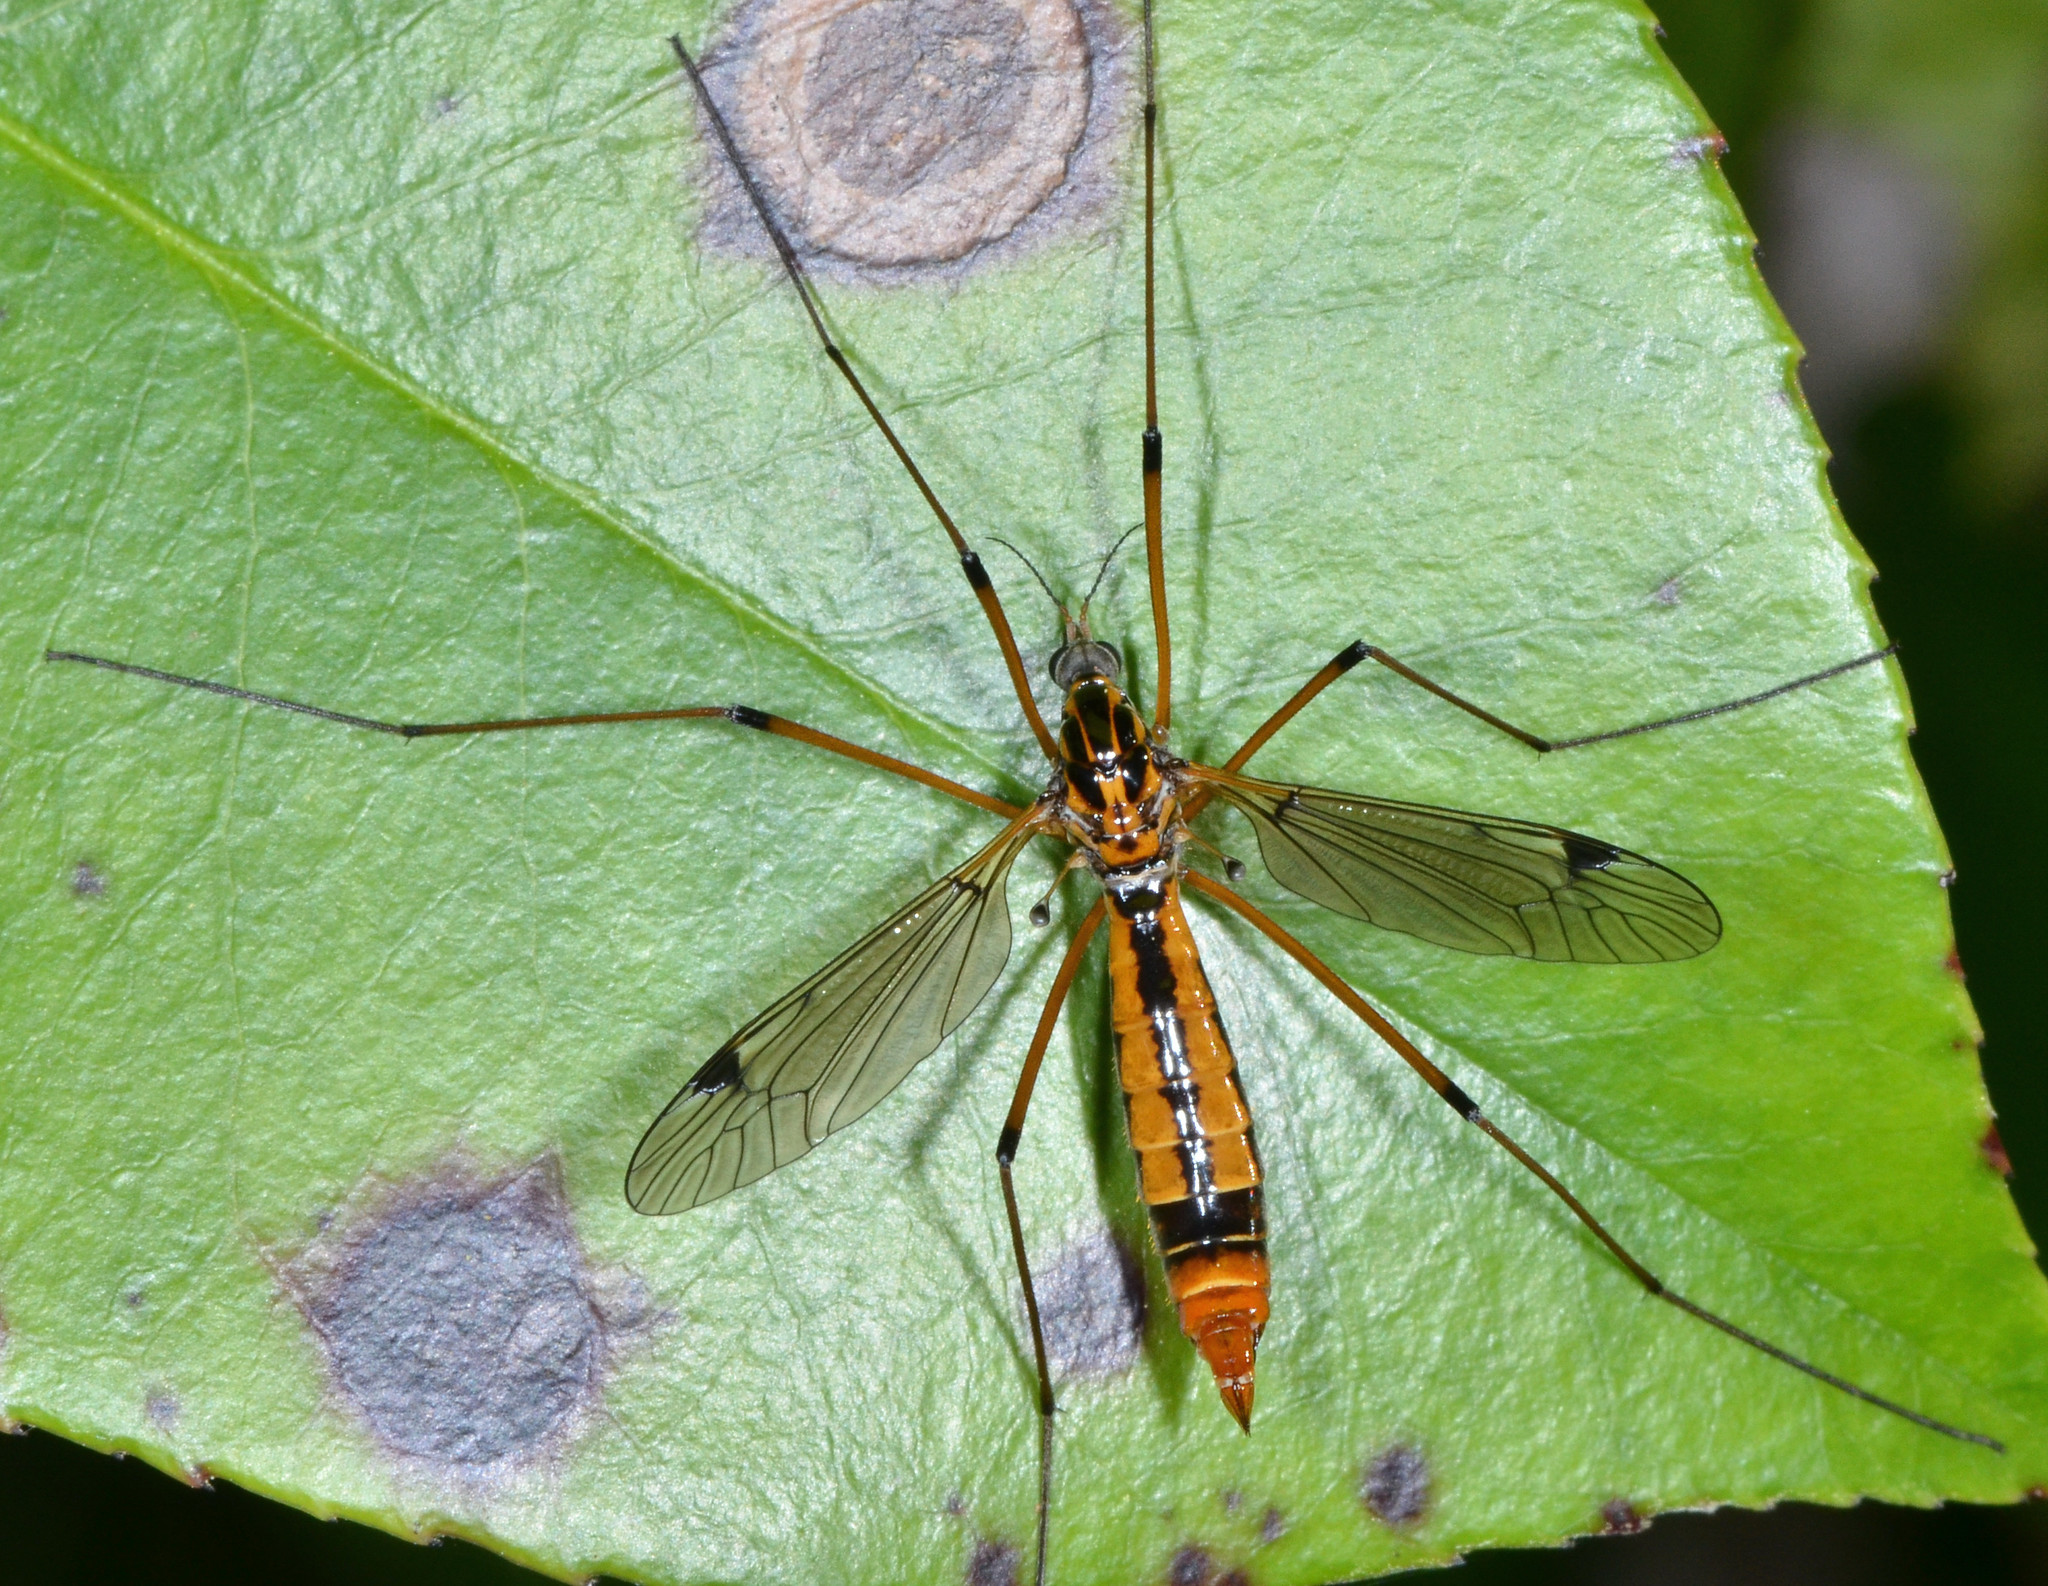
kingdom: Animalia
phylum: Arthropoda
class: Insecta
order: Diptera
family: Tipulidae
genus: Tipula
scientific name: Tipula californica
